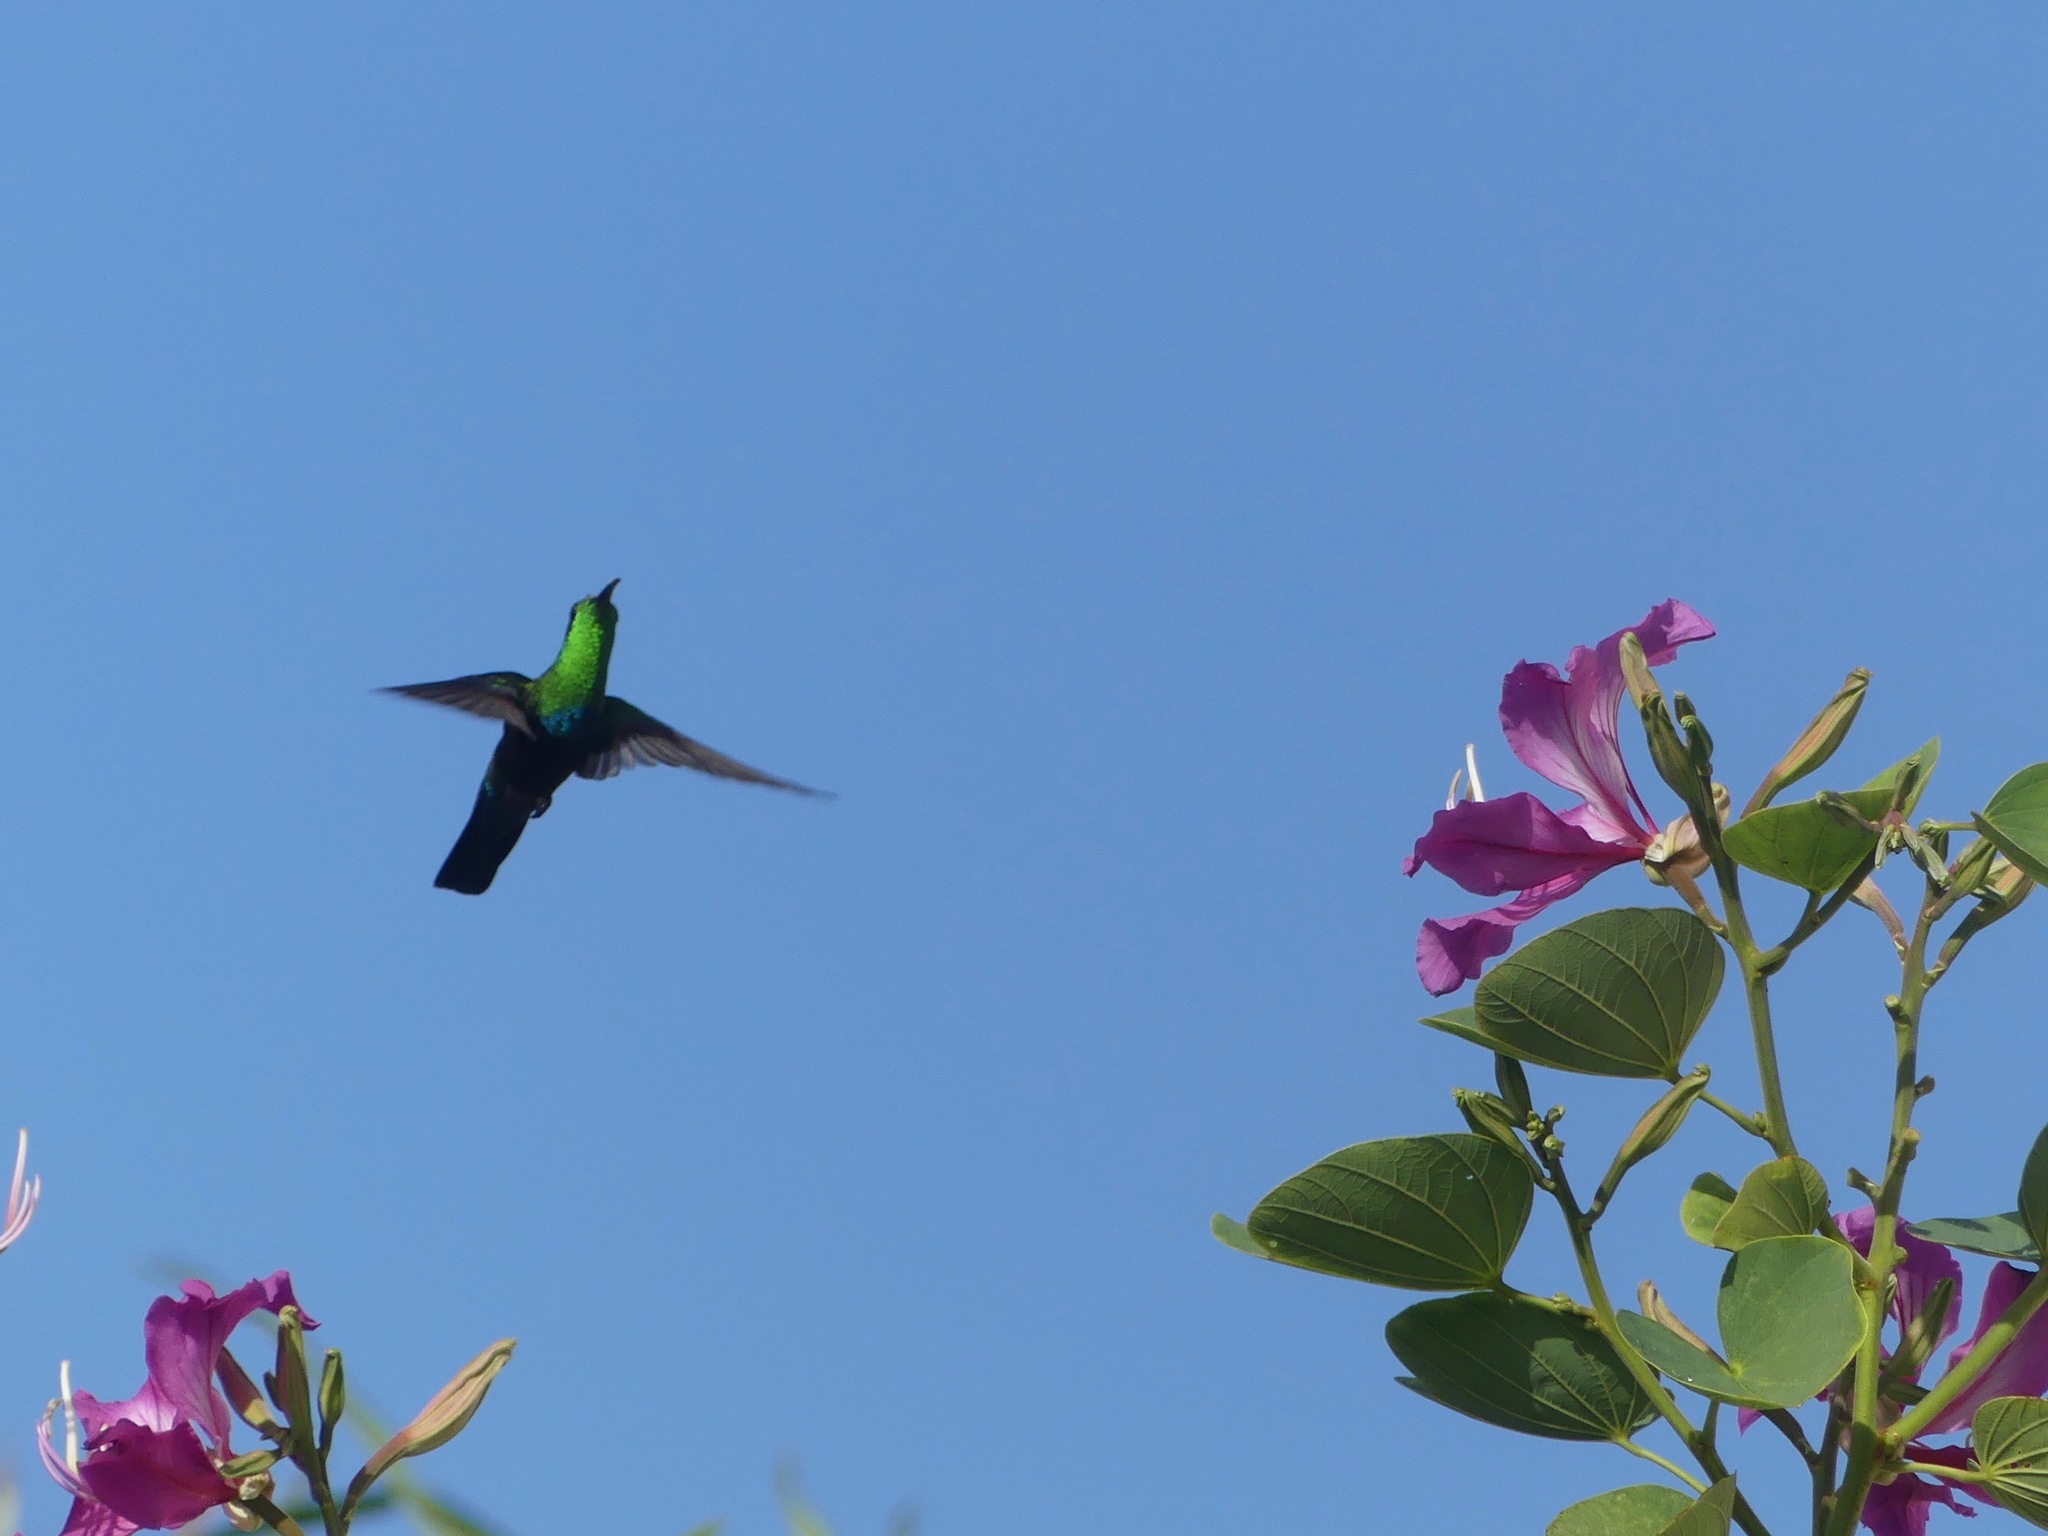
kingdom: Animalia
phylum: Chordata
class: Aves
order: Apodiformes
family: Trochilidae
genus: Eulampis
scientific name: Eulampis holosericeus
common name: Green-throated carib
